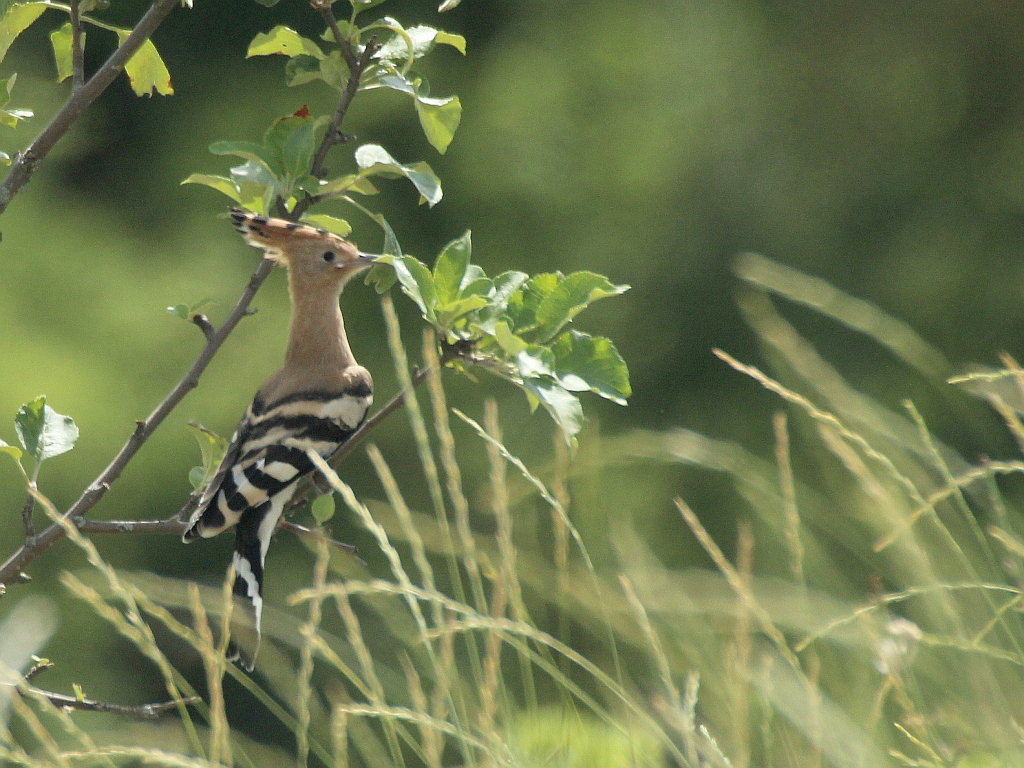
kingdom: Animalia
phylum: Chordata
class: Aves
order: Bucerotiformes
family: Upupidae
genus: Upupa
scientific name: Upupa epops
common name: Eurasian hoopoe
